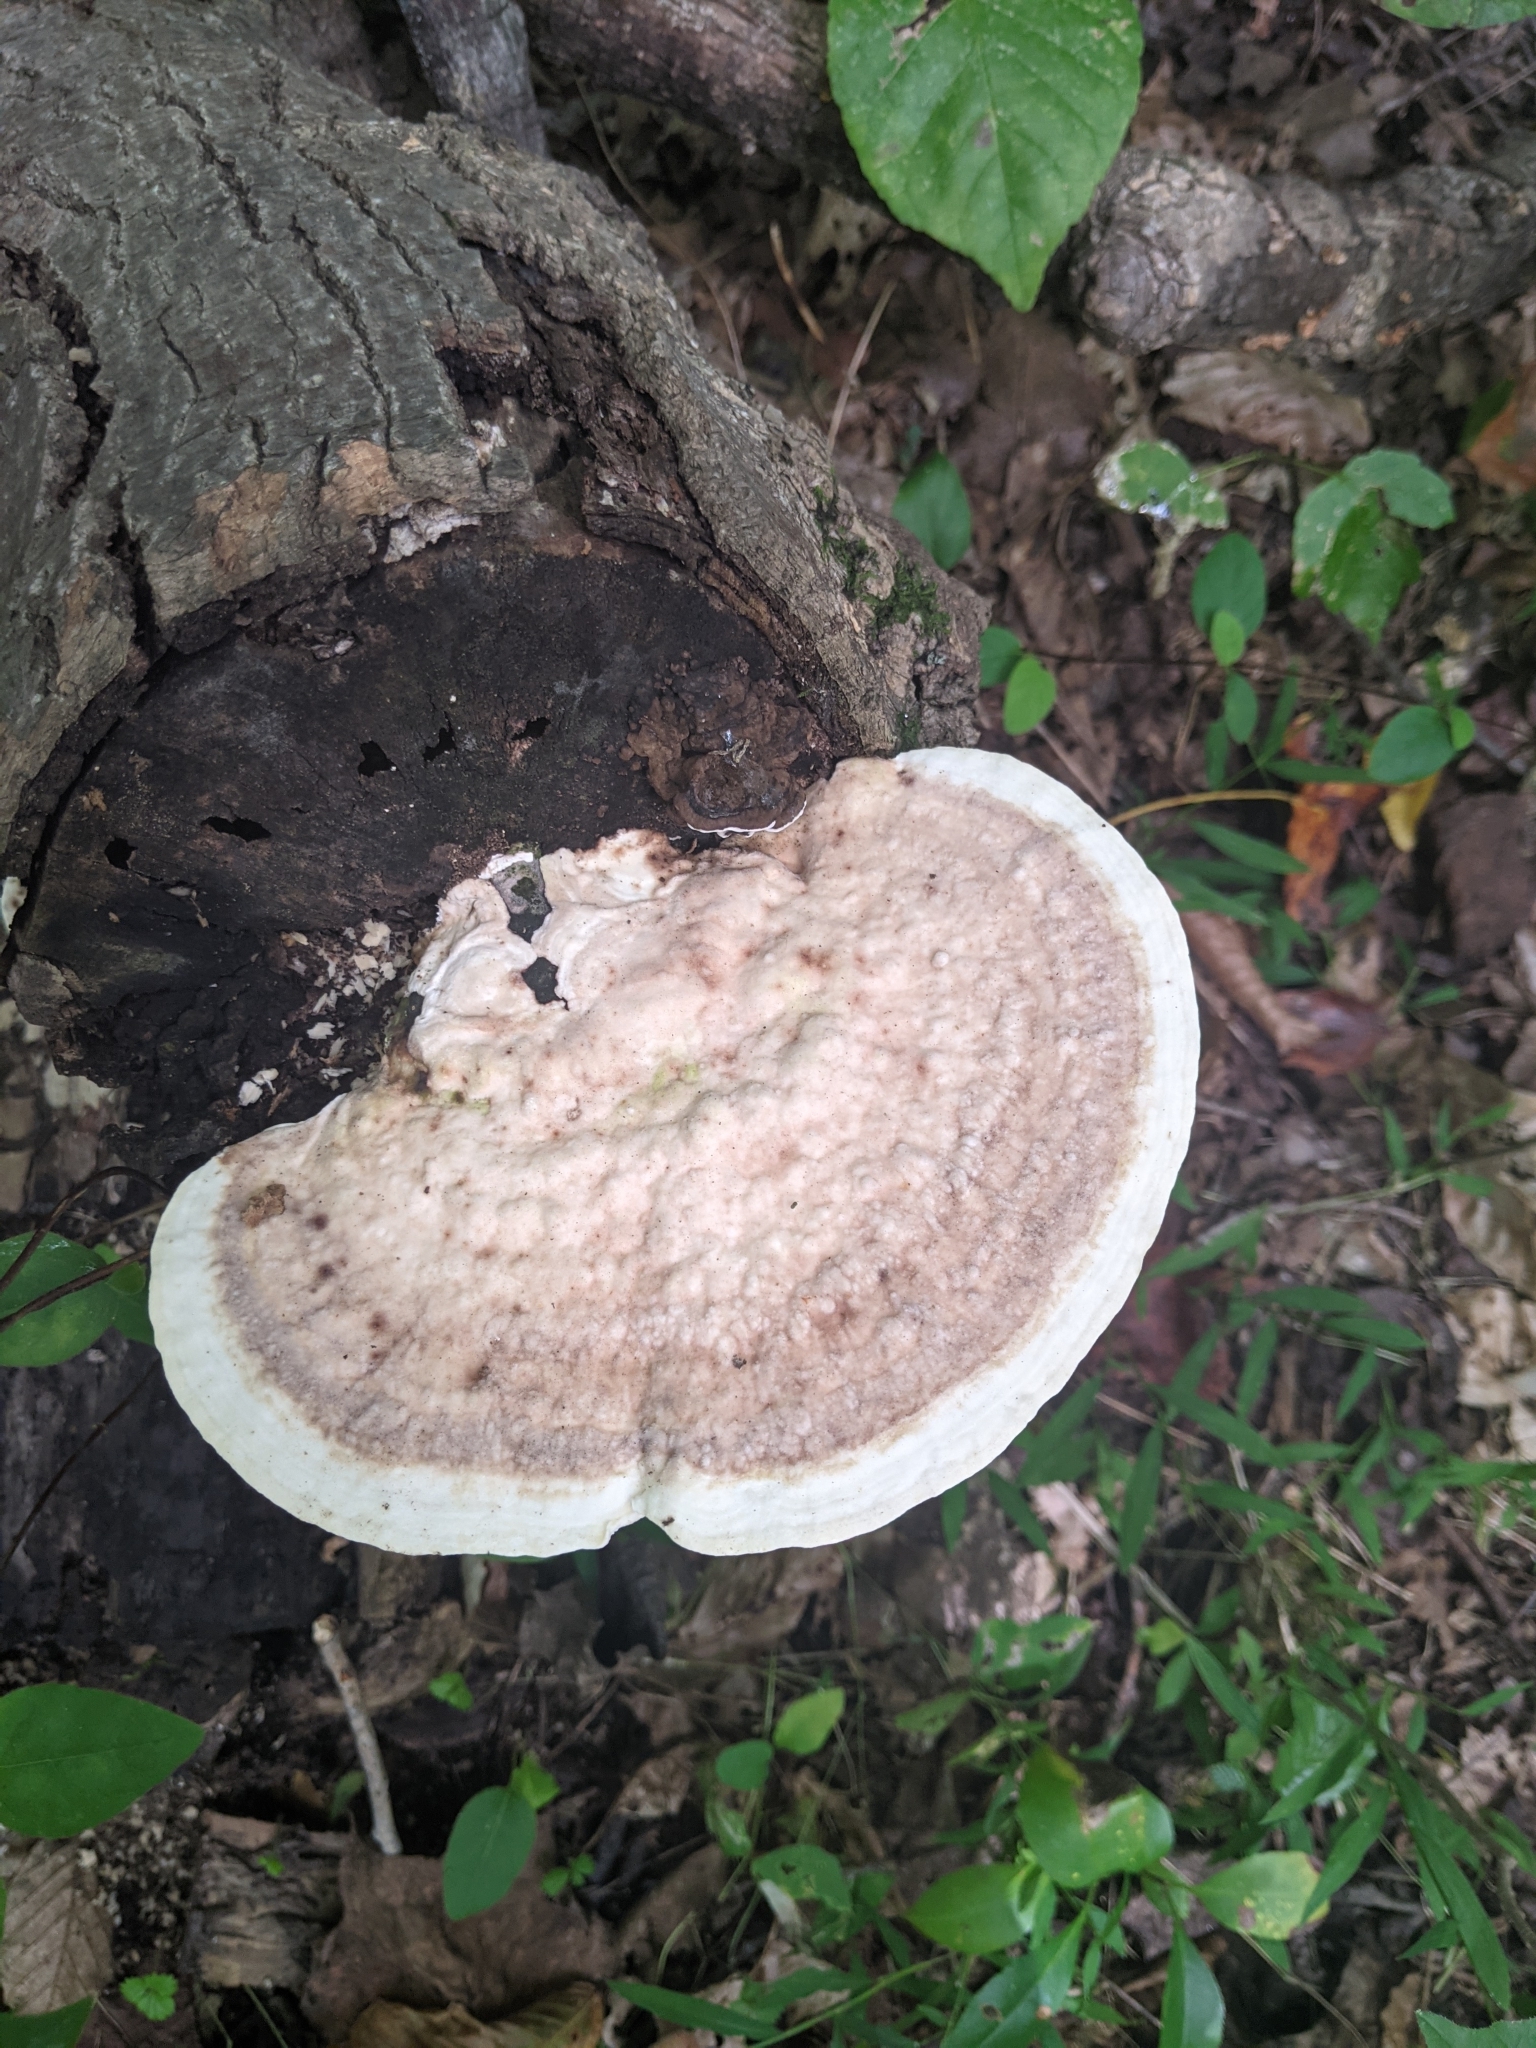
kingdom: Fungi
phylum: Basidiomycota
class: Agaricomycetes
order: Polyporales
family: Polyporaceae
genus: Trametes
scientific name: Trametes gibbosa
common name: Lumpy bracket
